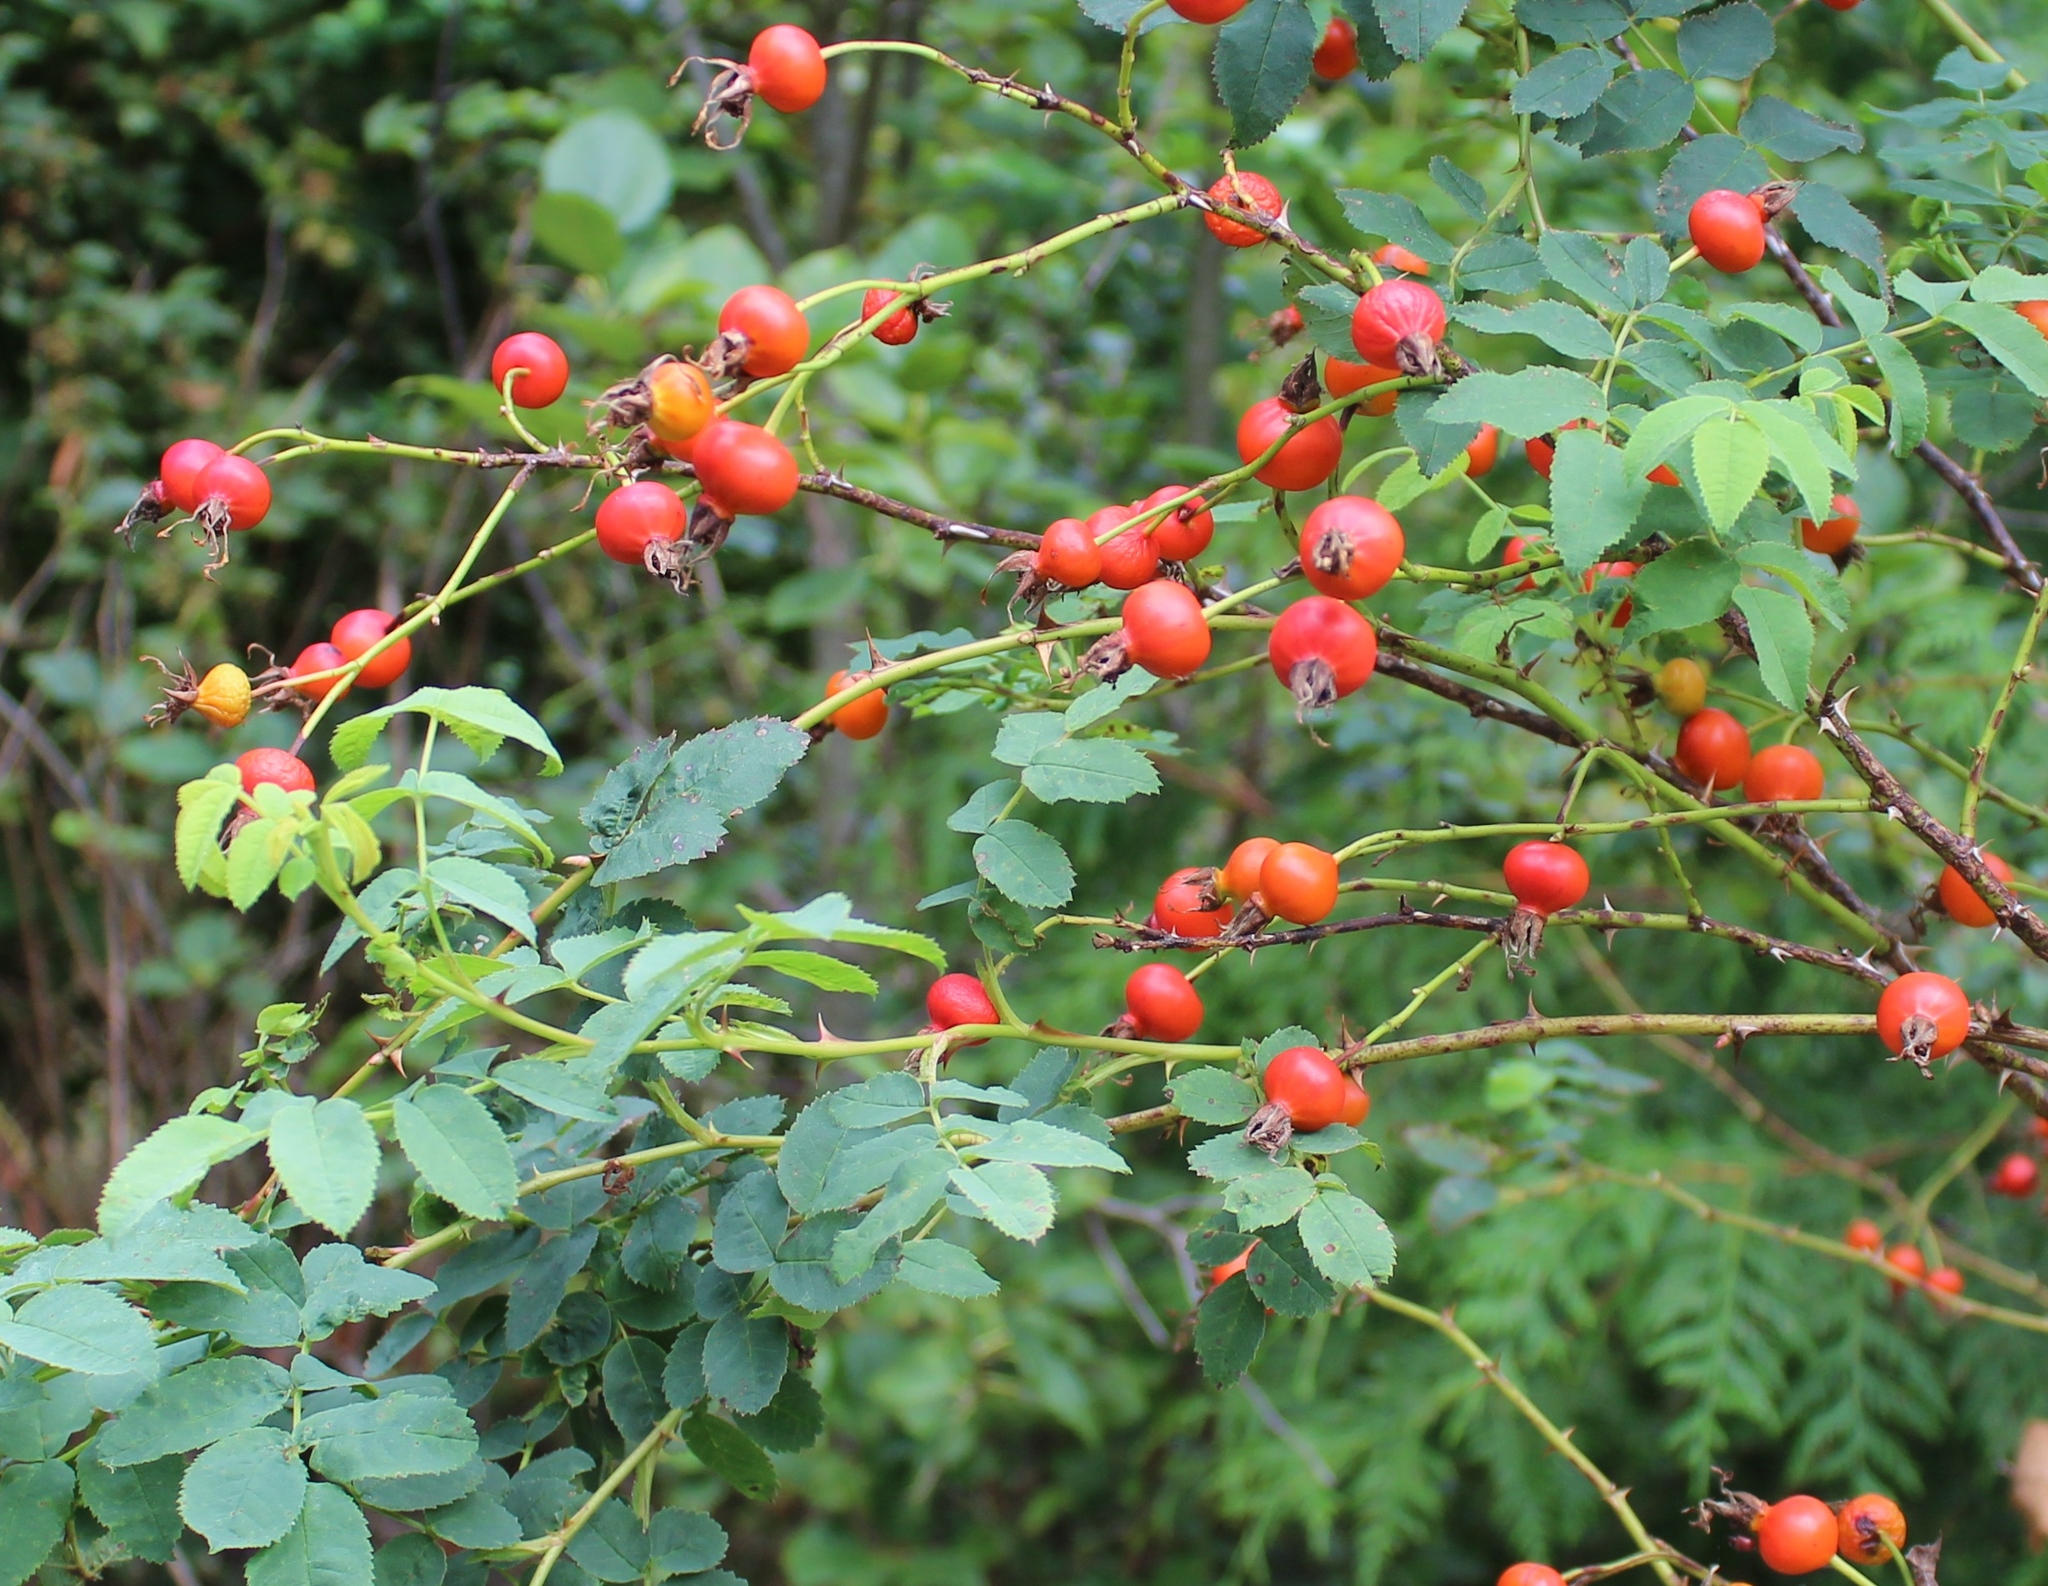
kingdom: Plantae
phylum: Tracheophyta
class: Magnoliopsida
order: Rosales
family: Rosaceae
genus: Rosa
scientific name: Rosa nutkana
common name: Nootka rose
